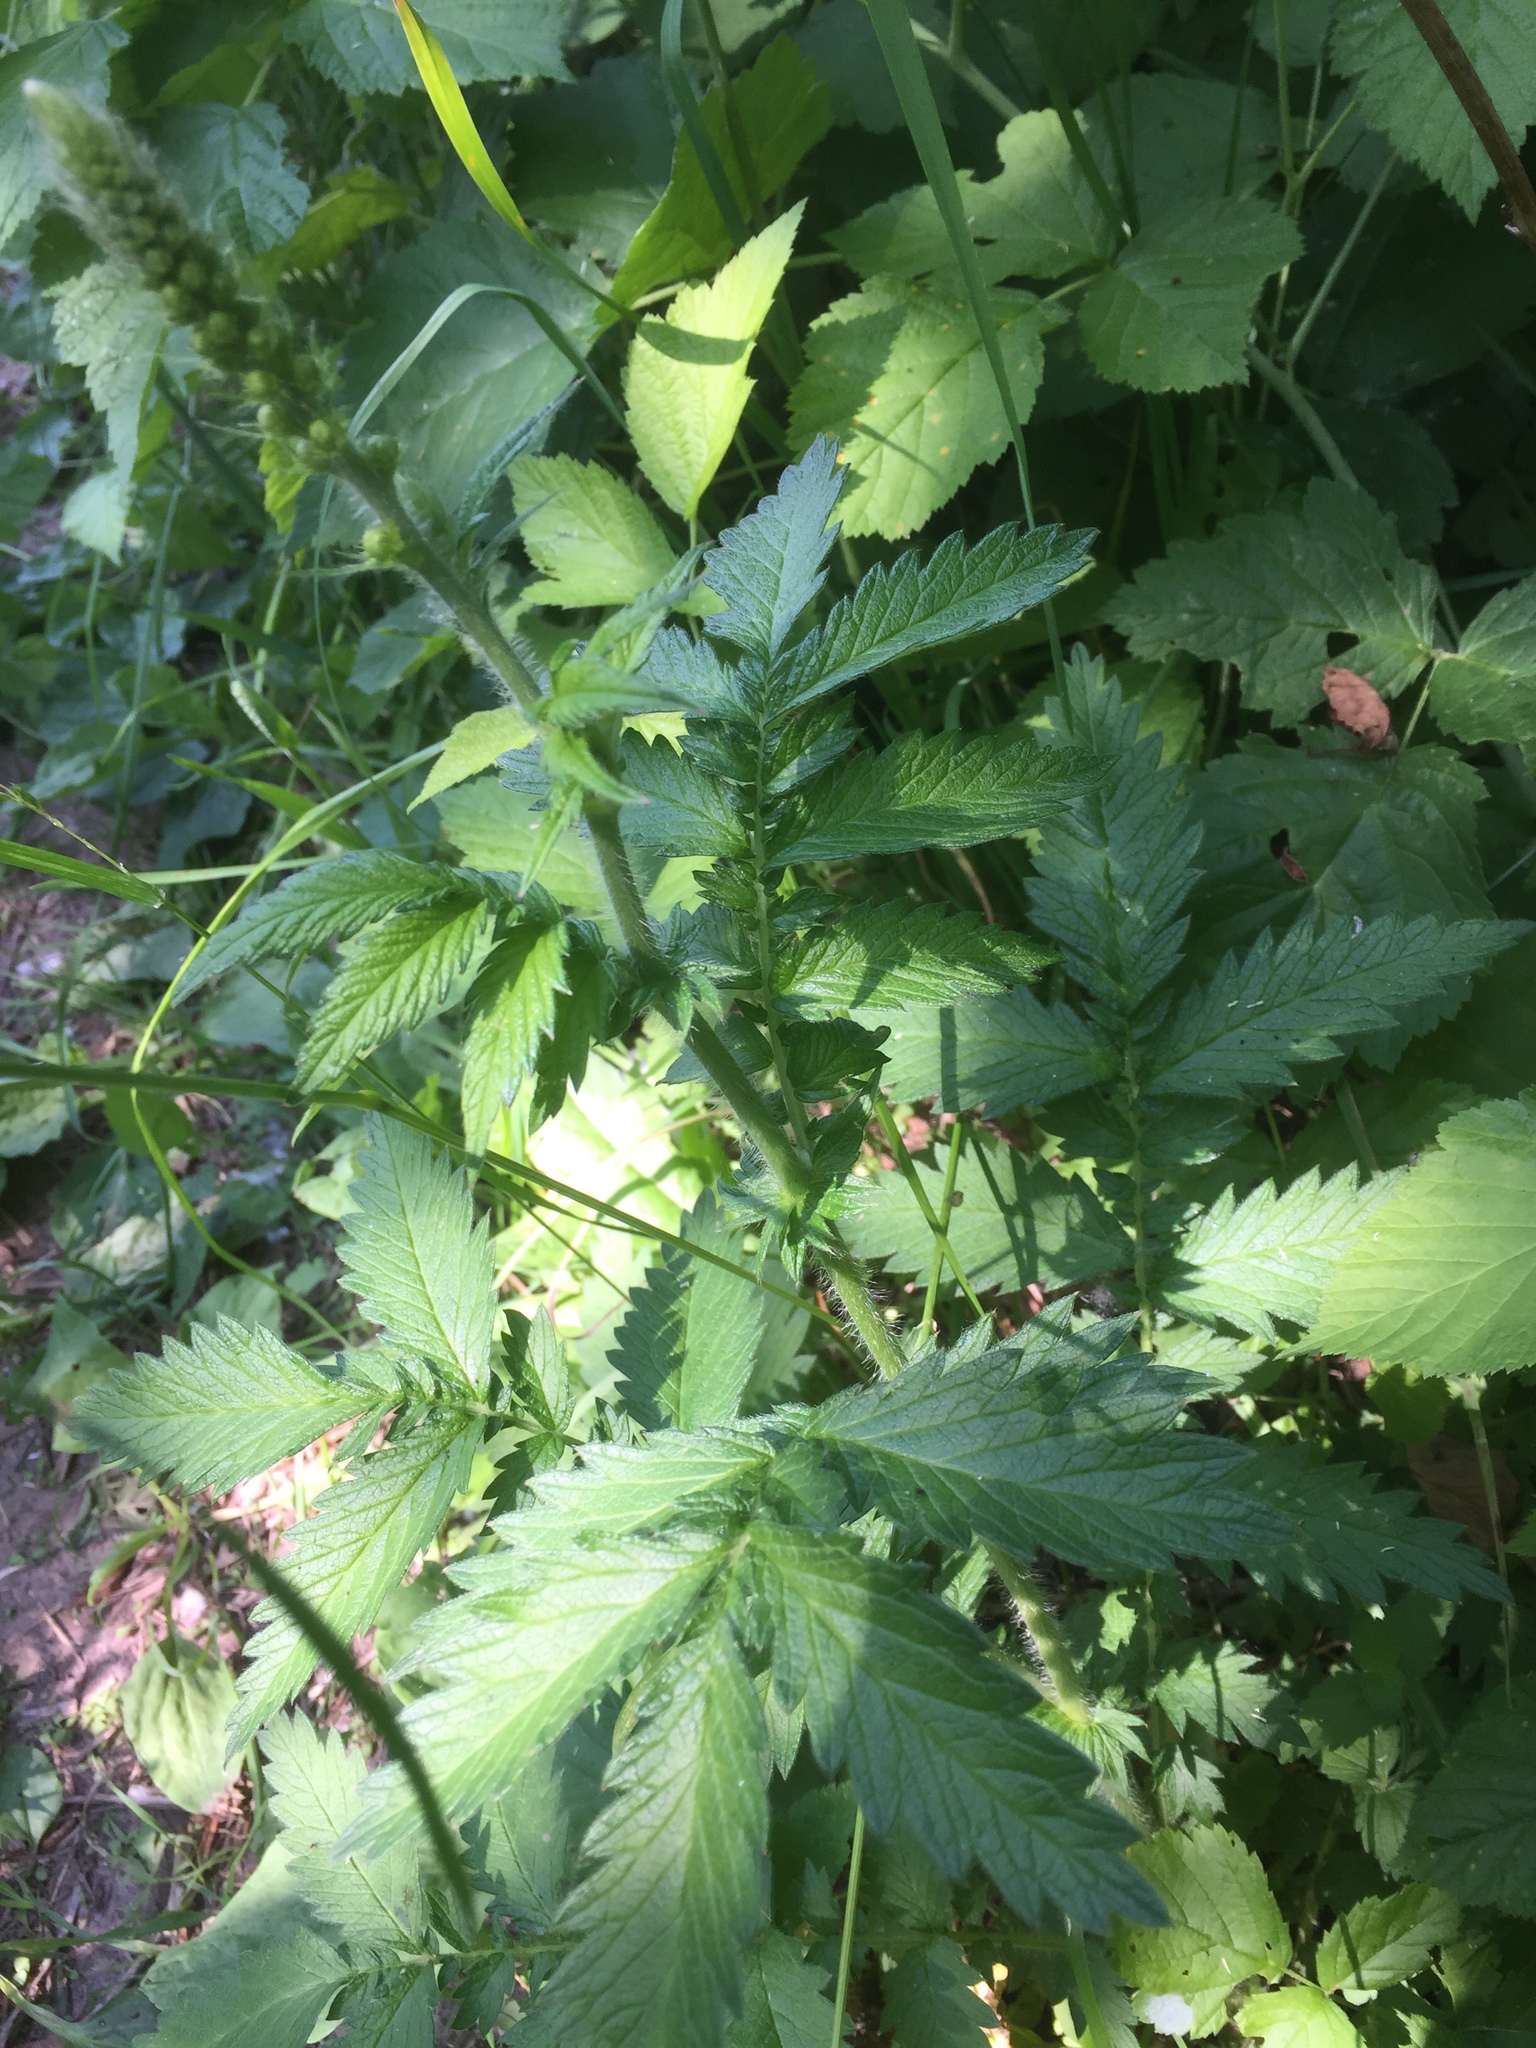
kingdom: Plantae
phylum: Tracheophyta
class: Magnoliopsida
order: Rosales
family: Rosaceae
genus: Agrimonia
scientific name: Agrimonia procera
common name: Fragrant agrimony
